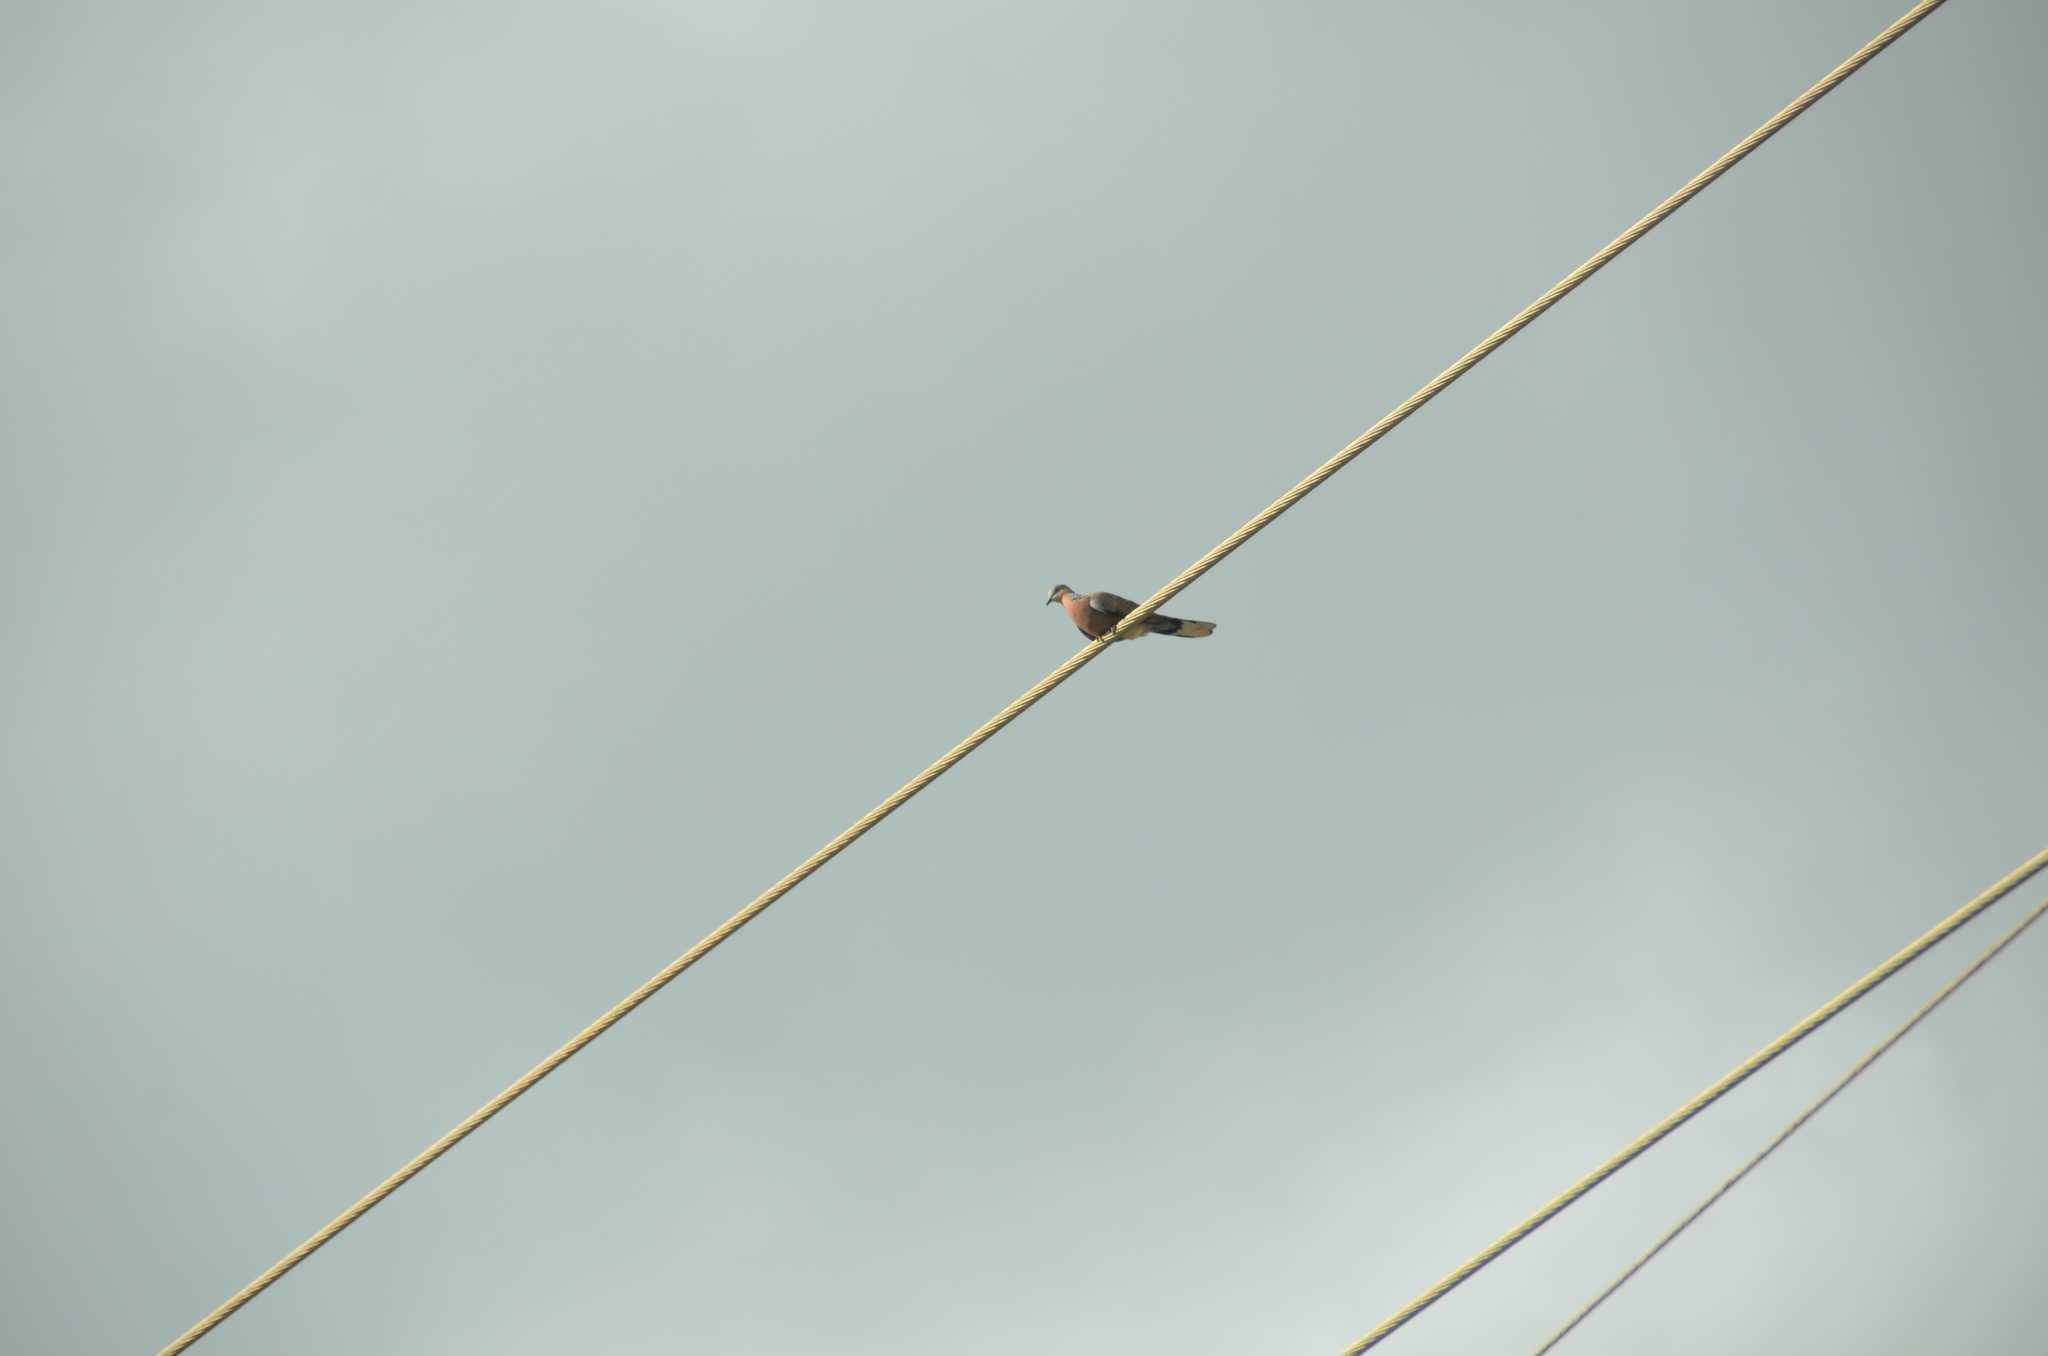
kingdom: Animalia
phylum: Chordata
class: Aves
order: Columbiformes
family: Columbidae
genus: Spilopelia
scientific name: Spilopelia chinensis
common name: Spotted dove
